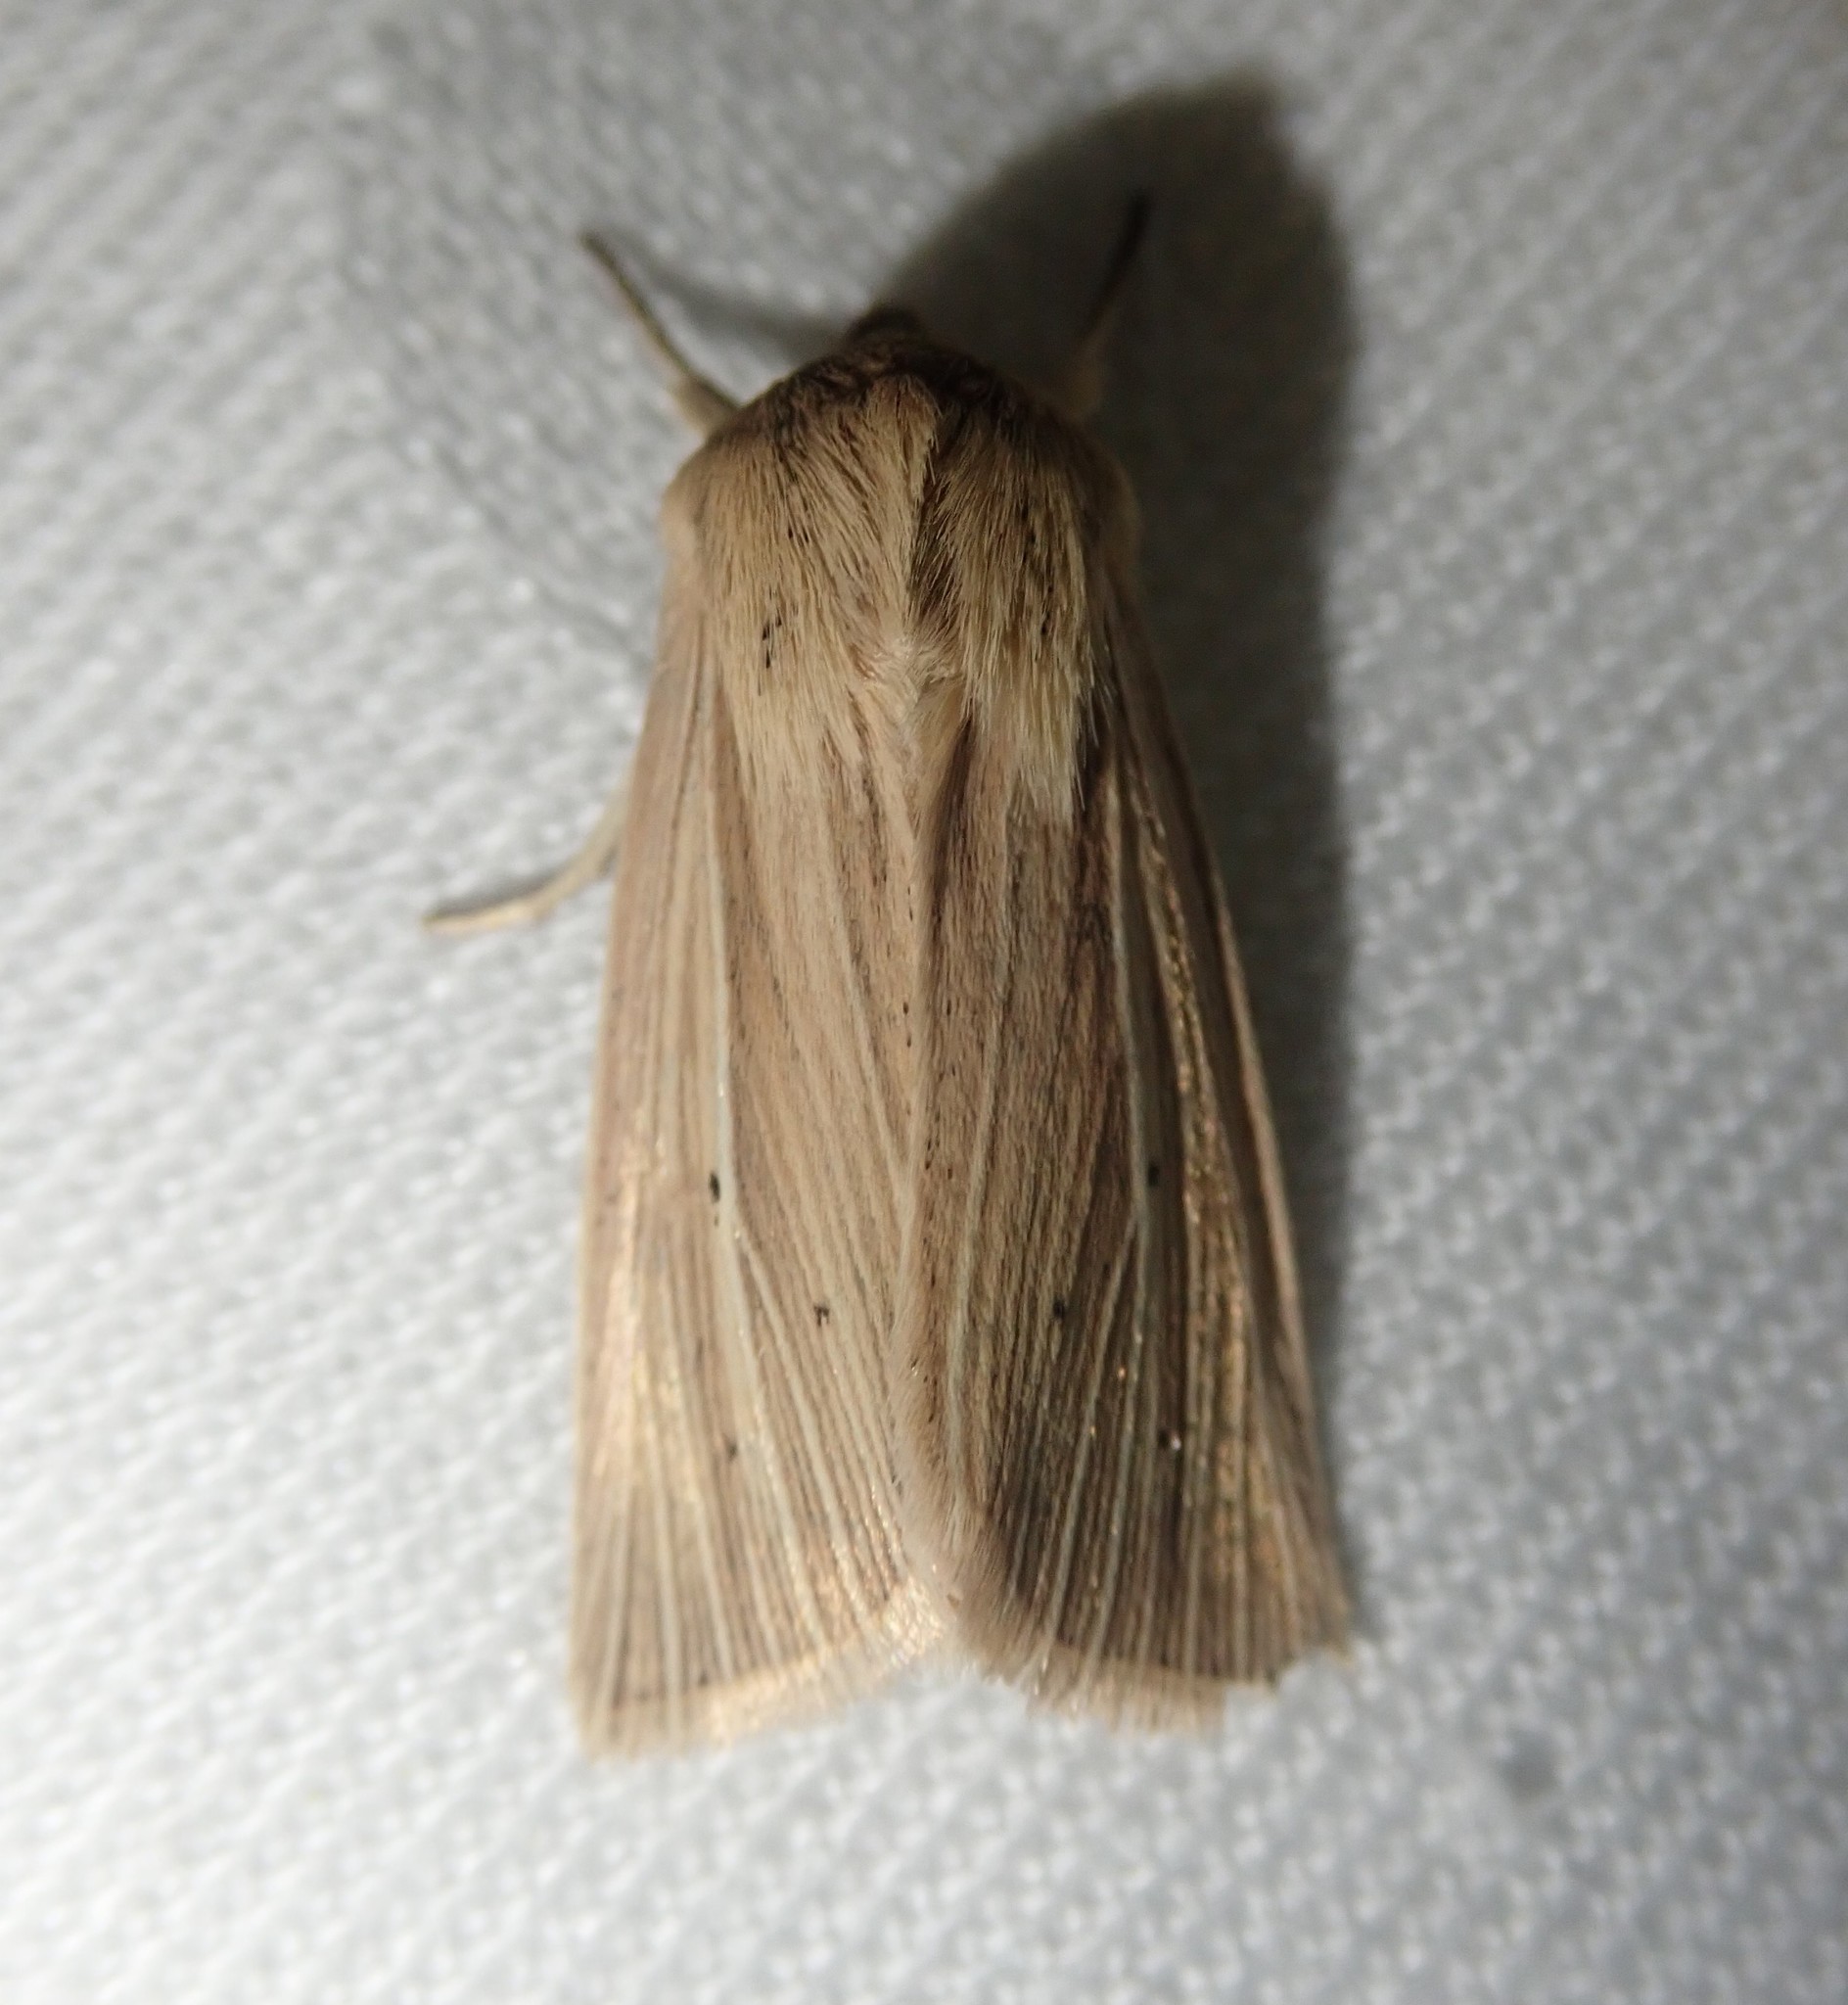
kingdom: Animalia
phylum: Arthropoda
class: Insecta
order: Lepidoptera
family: Noctuidae
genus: Mythimna
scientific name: Mythimna pallens
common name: Common wainscot
